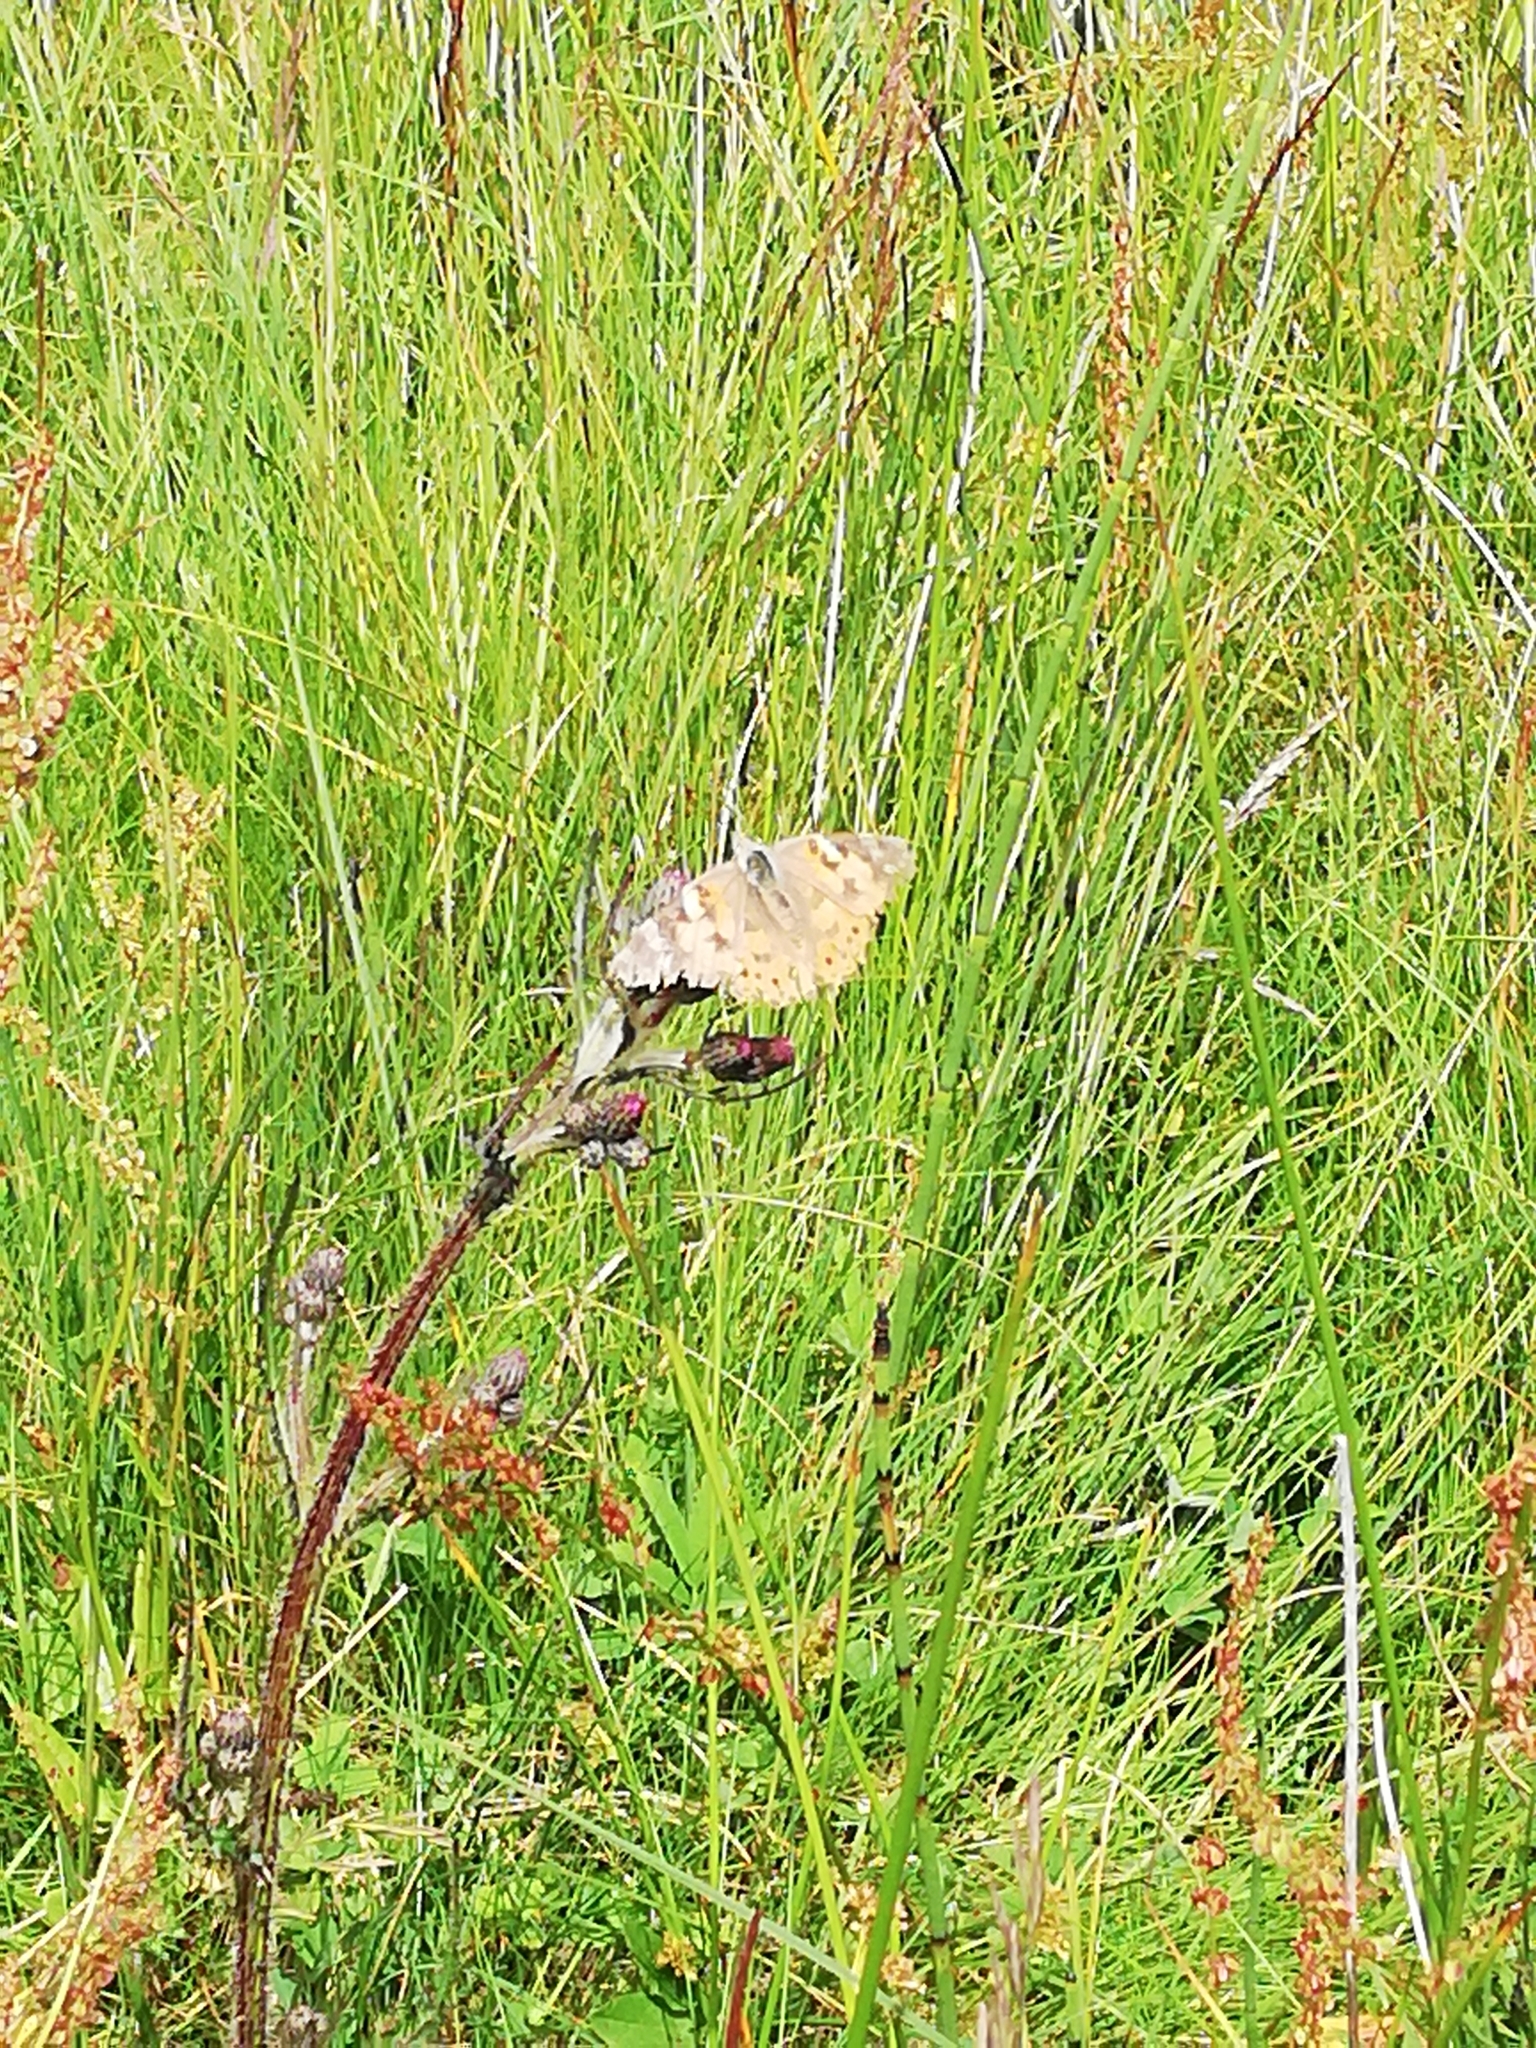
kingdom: Animalia
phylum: Arthropoda
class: Insecta
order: Lepidoptera
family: Nymphalidae
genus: Vanessa
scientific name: Vanessa cardui
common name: Painted lady
